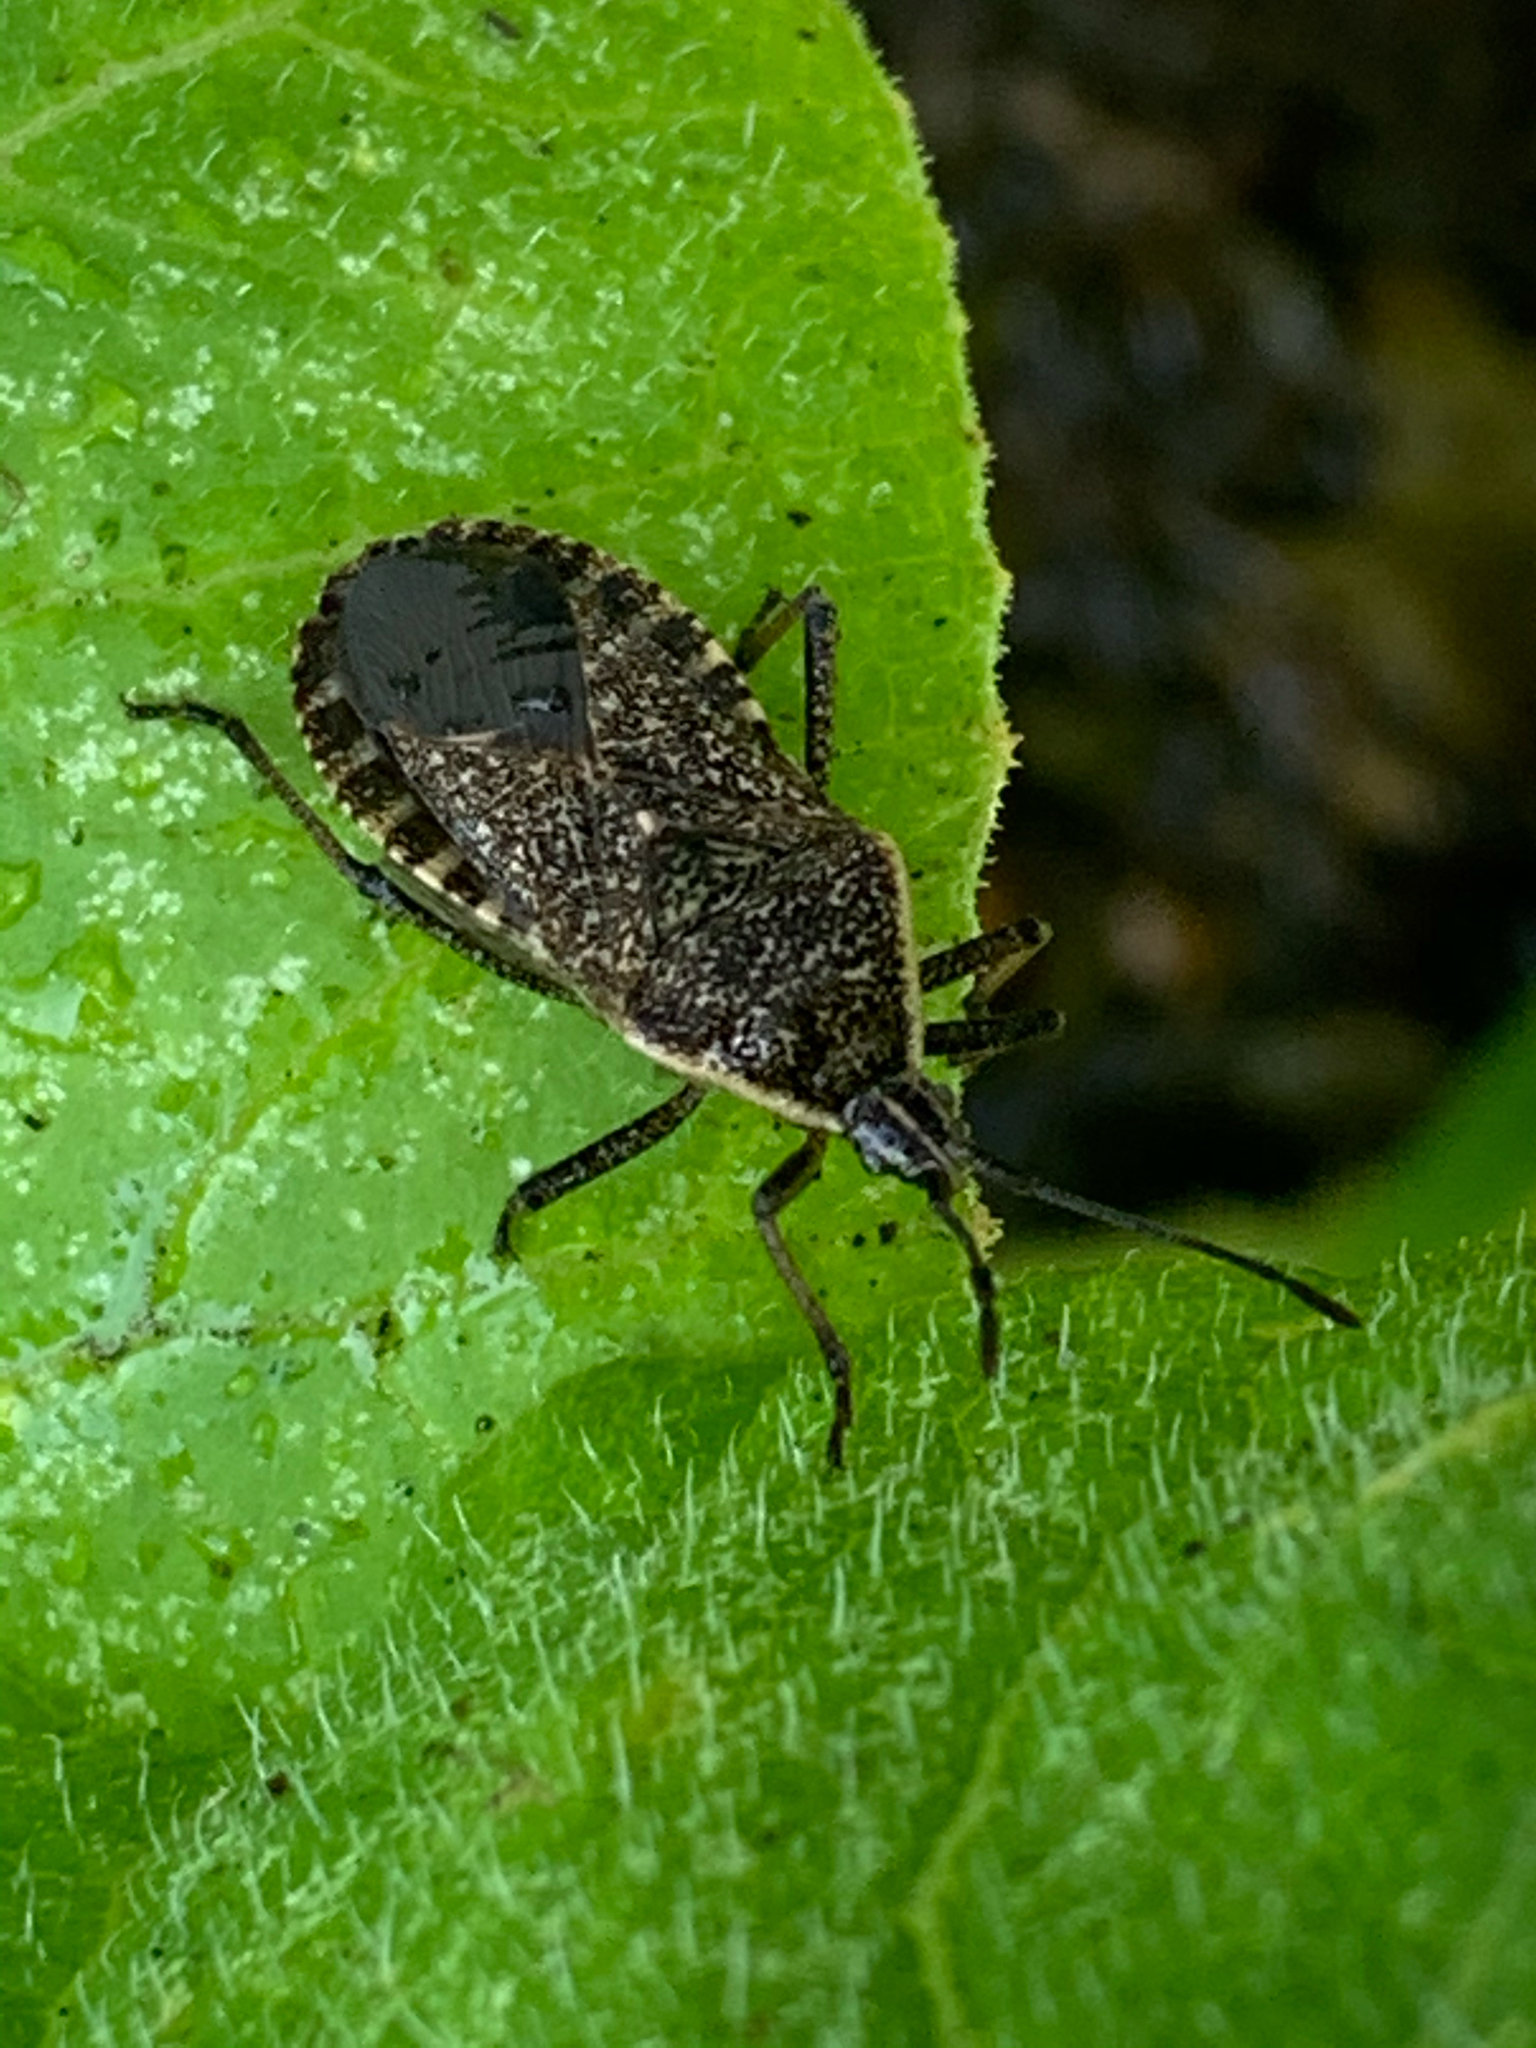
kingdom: Animalia
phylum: Arthropoda
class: Insecta
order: Hemiptera
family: Coreidae
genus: Anasa
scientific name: Anasa tristis
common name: Squash bug
